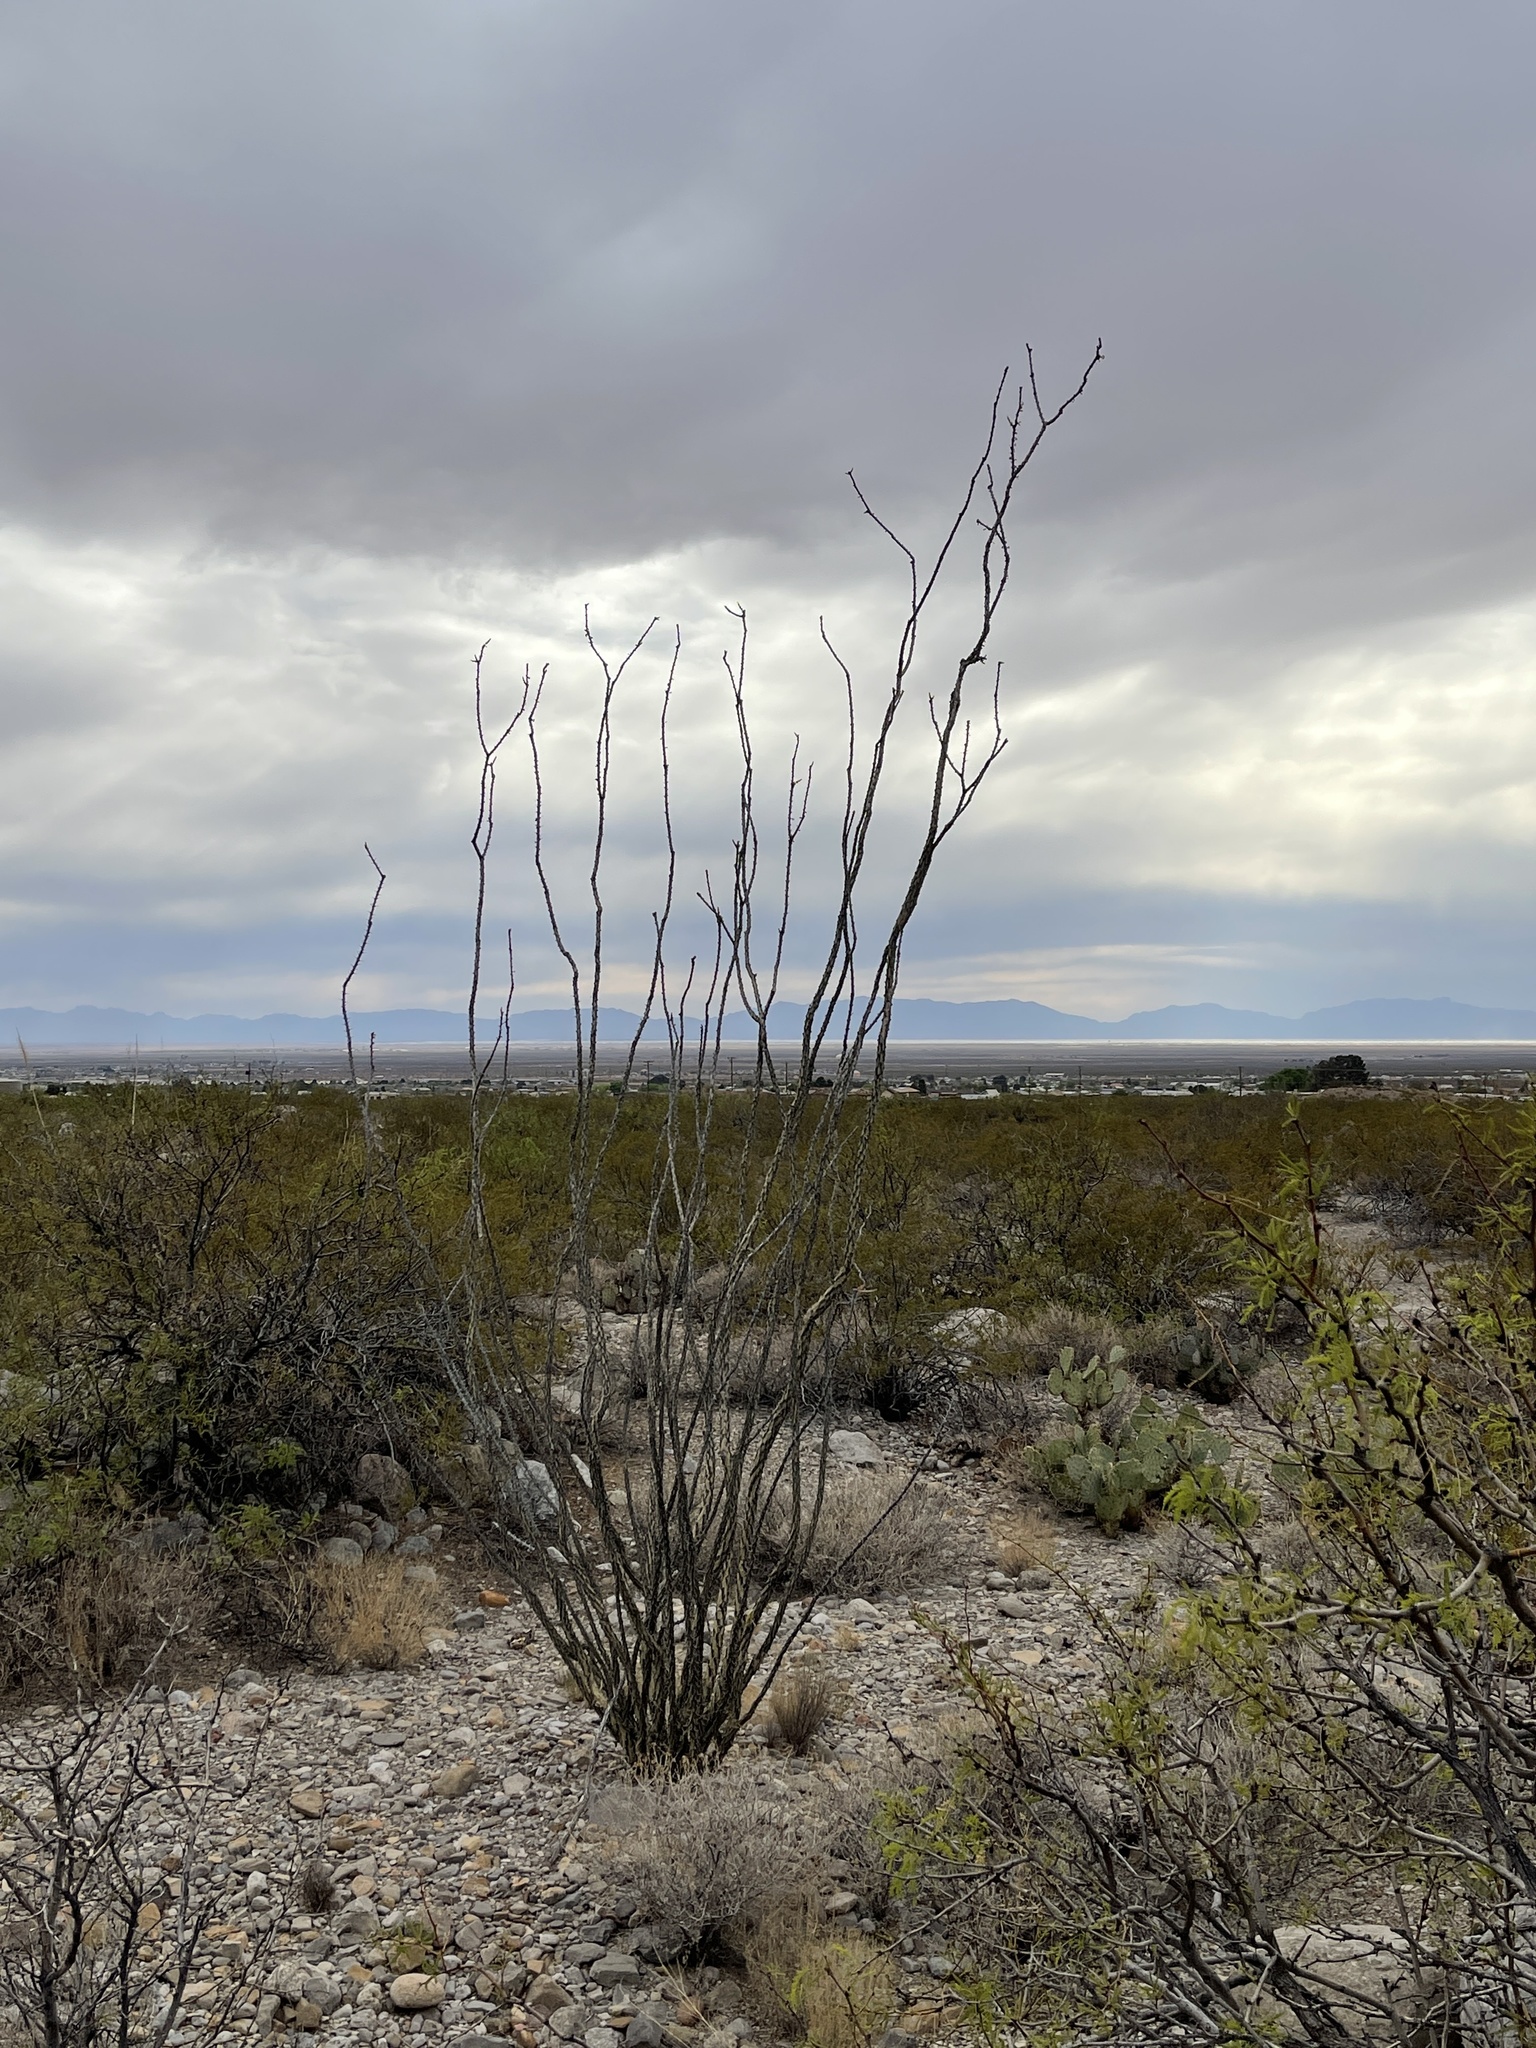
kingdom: Plantae
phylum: Tracheophyta
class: Magnoliopsida
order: Ericales
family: Fouquieriaceae
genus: Fouquieria
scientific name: Fouquieria splendens
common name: Vine-cactus
